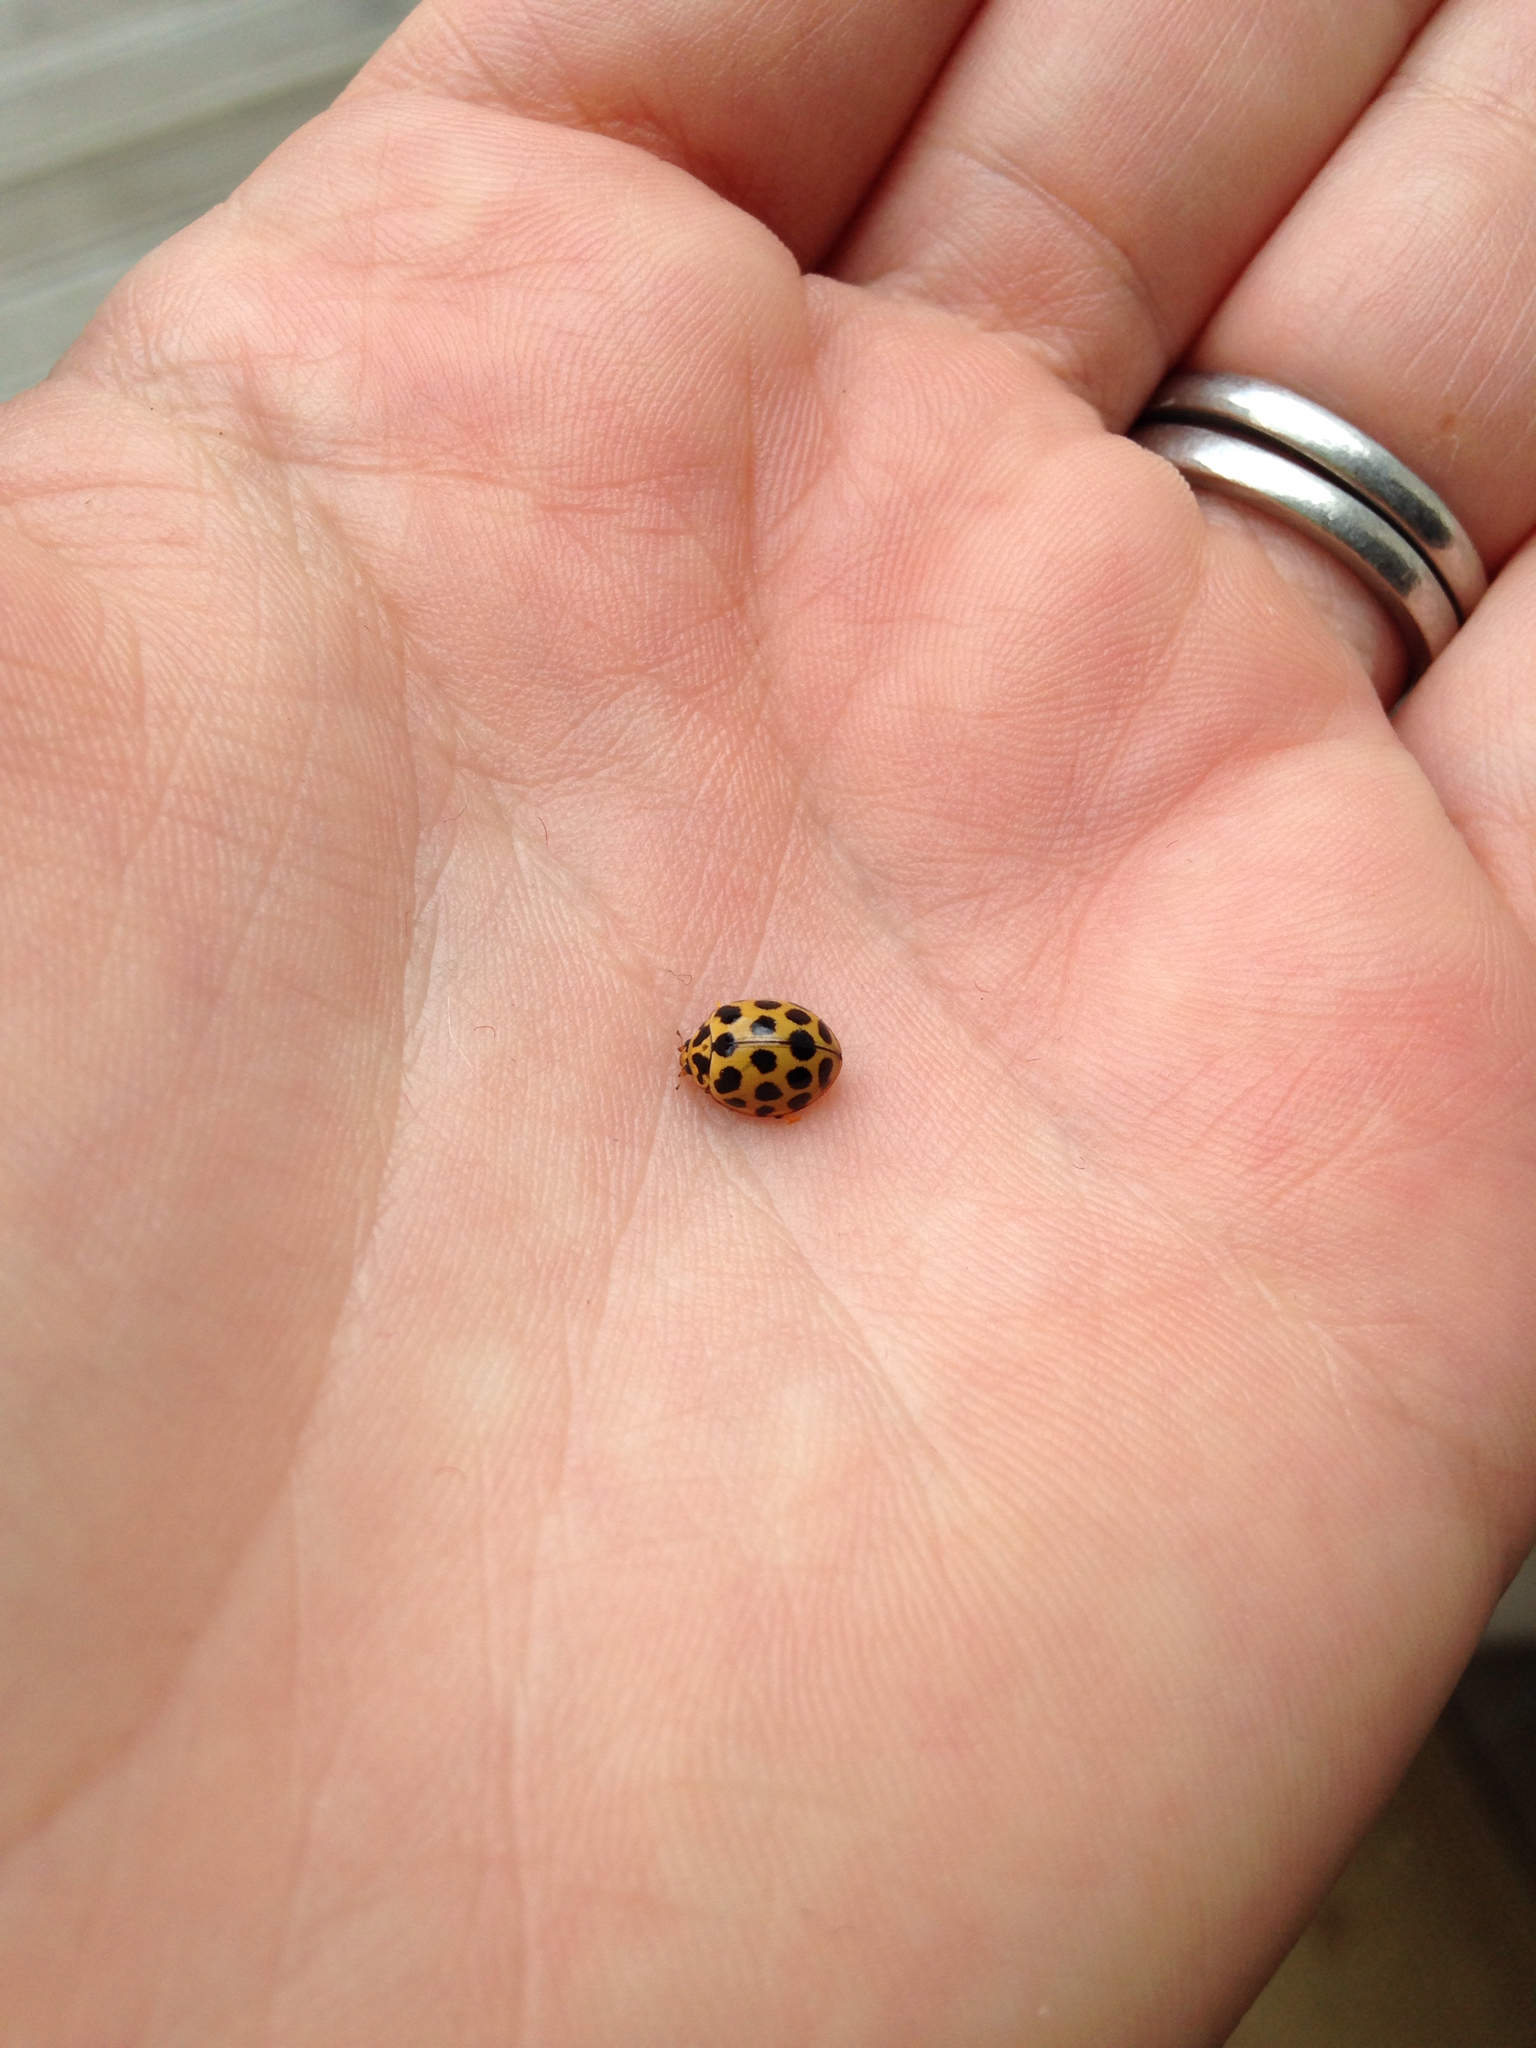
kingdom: Animalia
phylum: Arthropoda
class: Insecta
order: Coleoptera
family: Coccinellidae
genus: Harmonia
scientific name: Harmonia conformis
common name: Common spotted ladybird beetle
